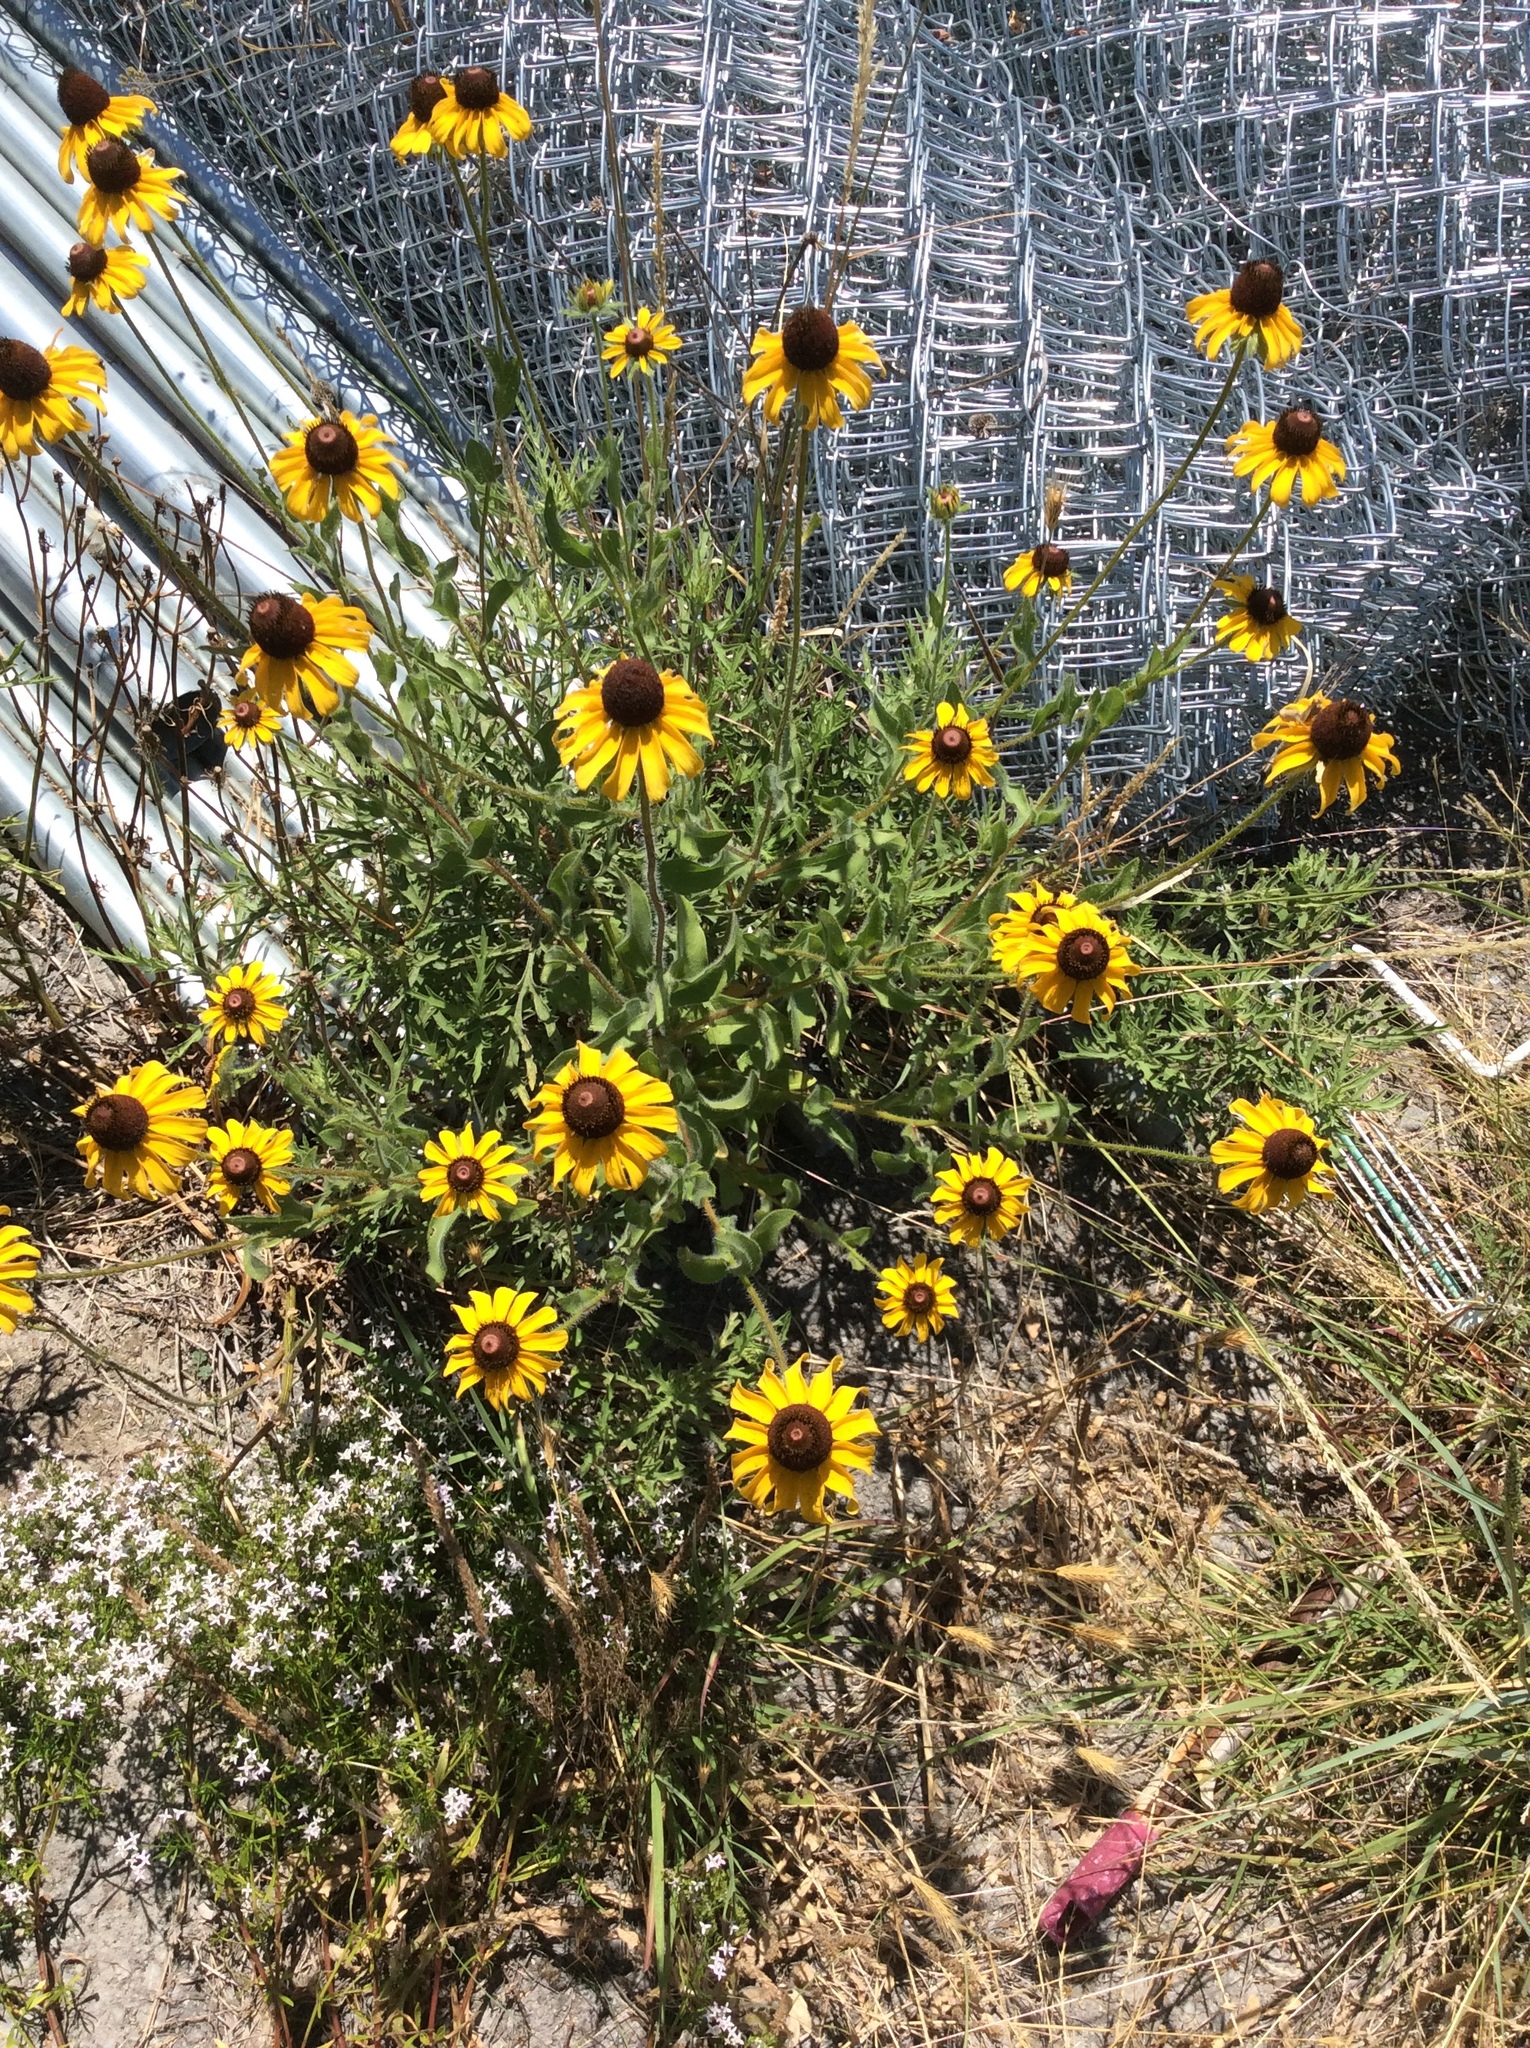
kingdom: Plantae
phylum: Tracheophyta
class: Magnoliopsida
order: Asterales
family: Asteraceae
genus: Rudbeckia
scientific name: Rudbeckia hirta
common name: Black-eyed-susan
